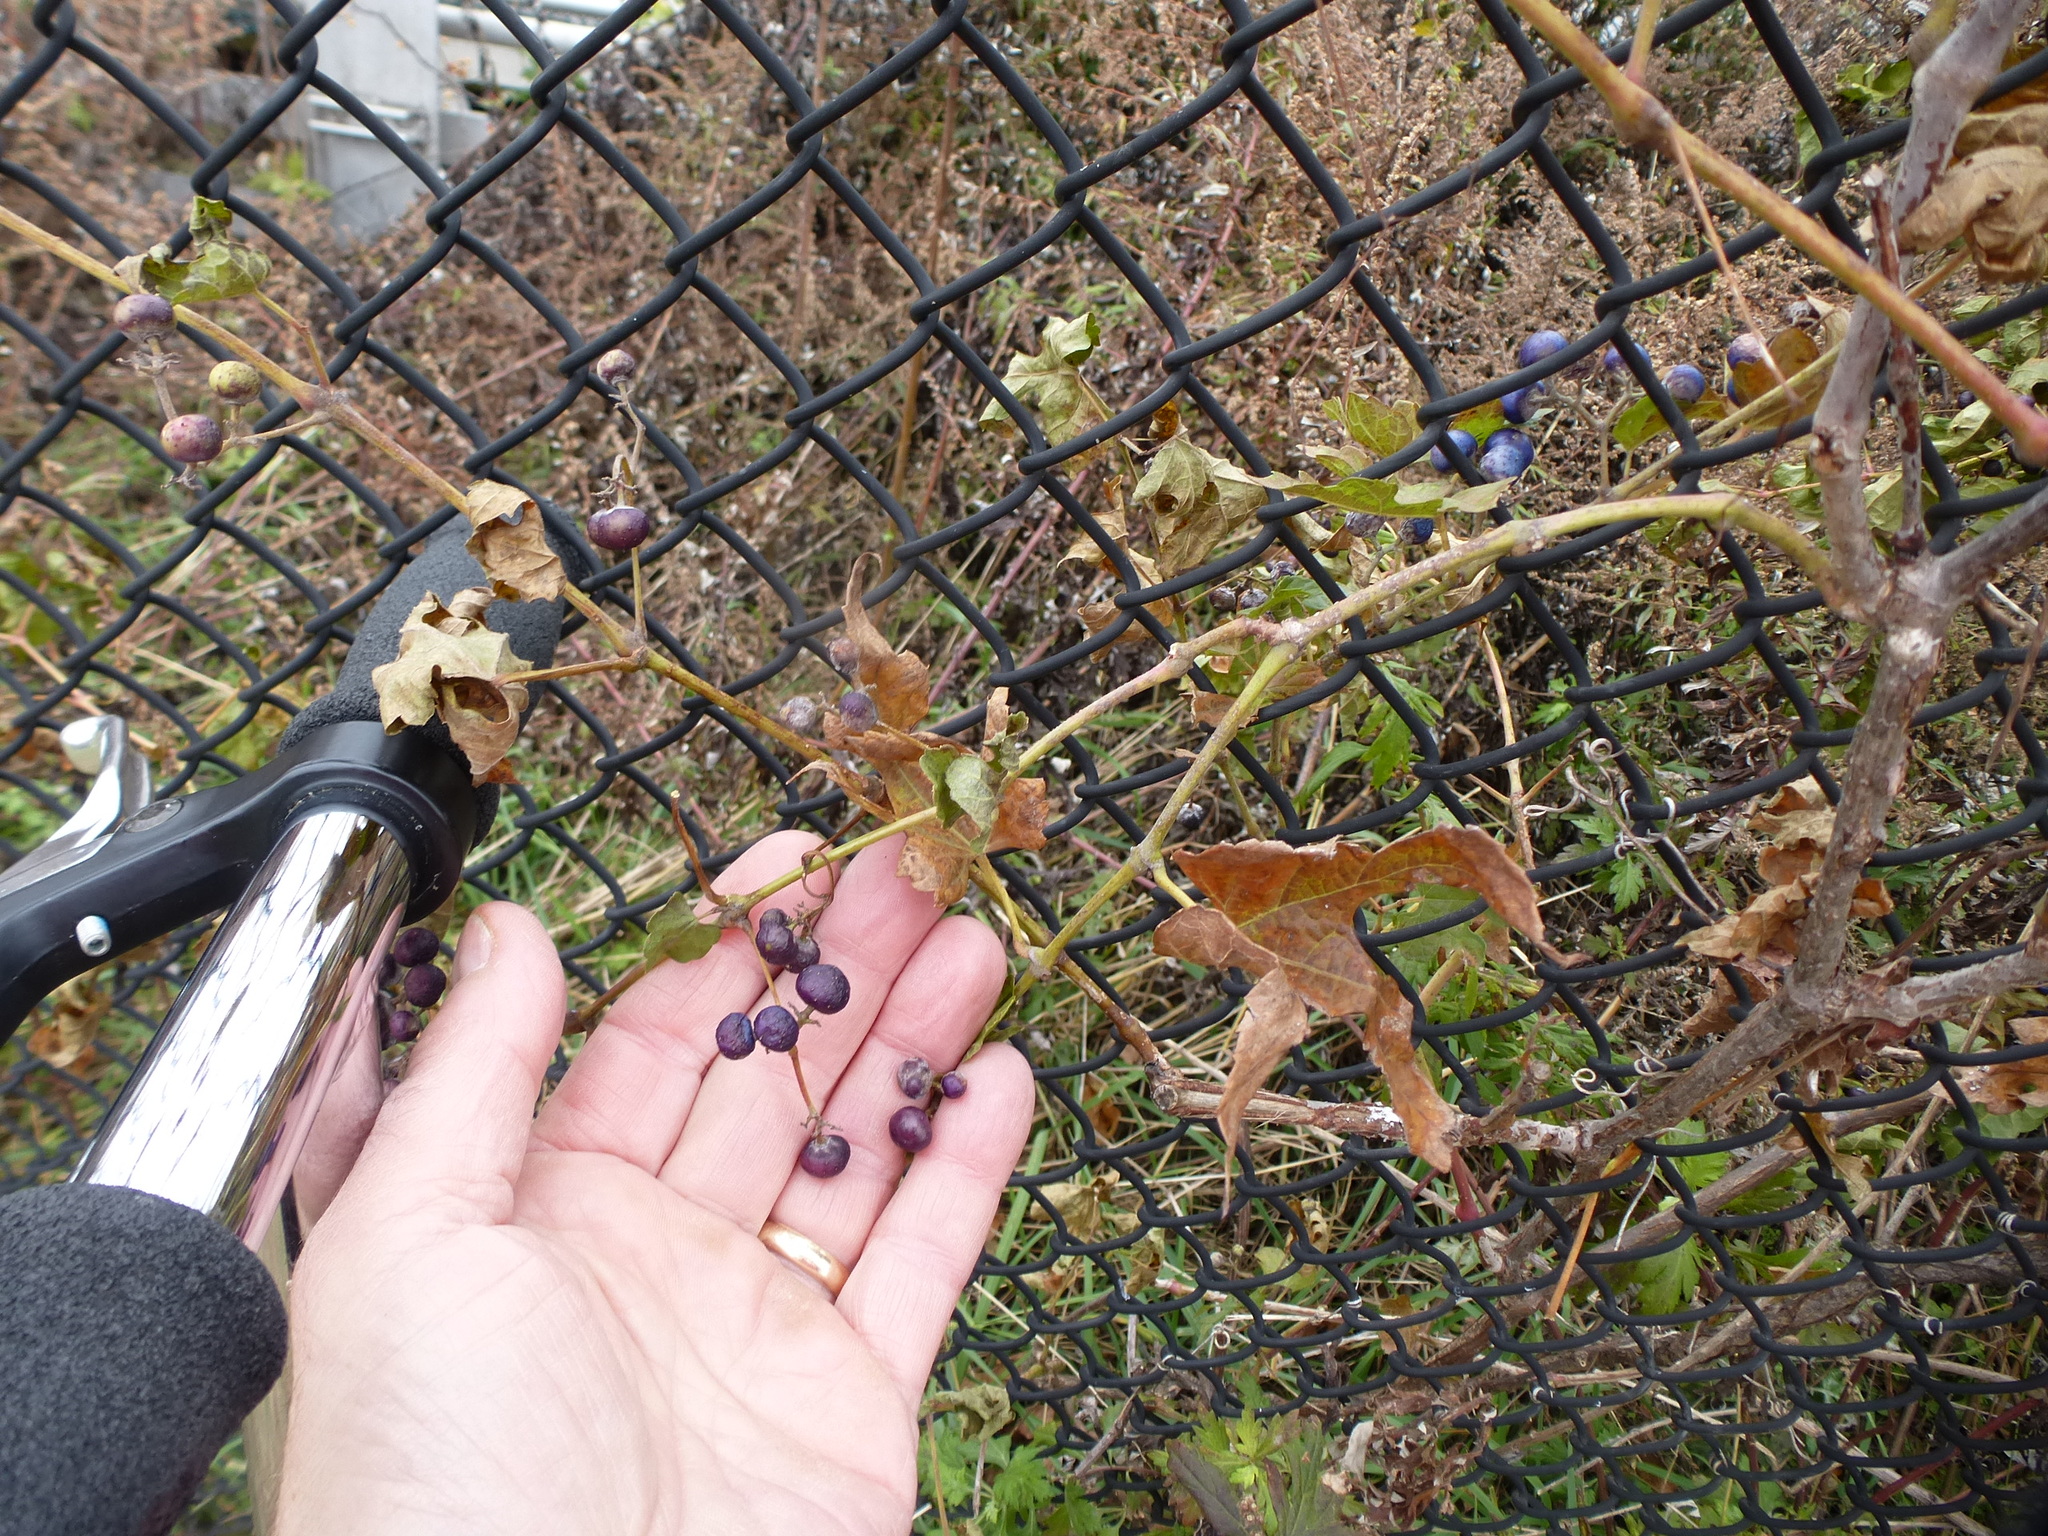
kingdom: Plantae
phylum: Tracheophyta
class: Magnoliopsida
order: Vitales
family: Vitaceae
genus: Ampelopsis
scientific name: Ampelopsis glandulosa
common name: Amur peppervine
